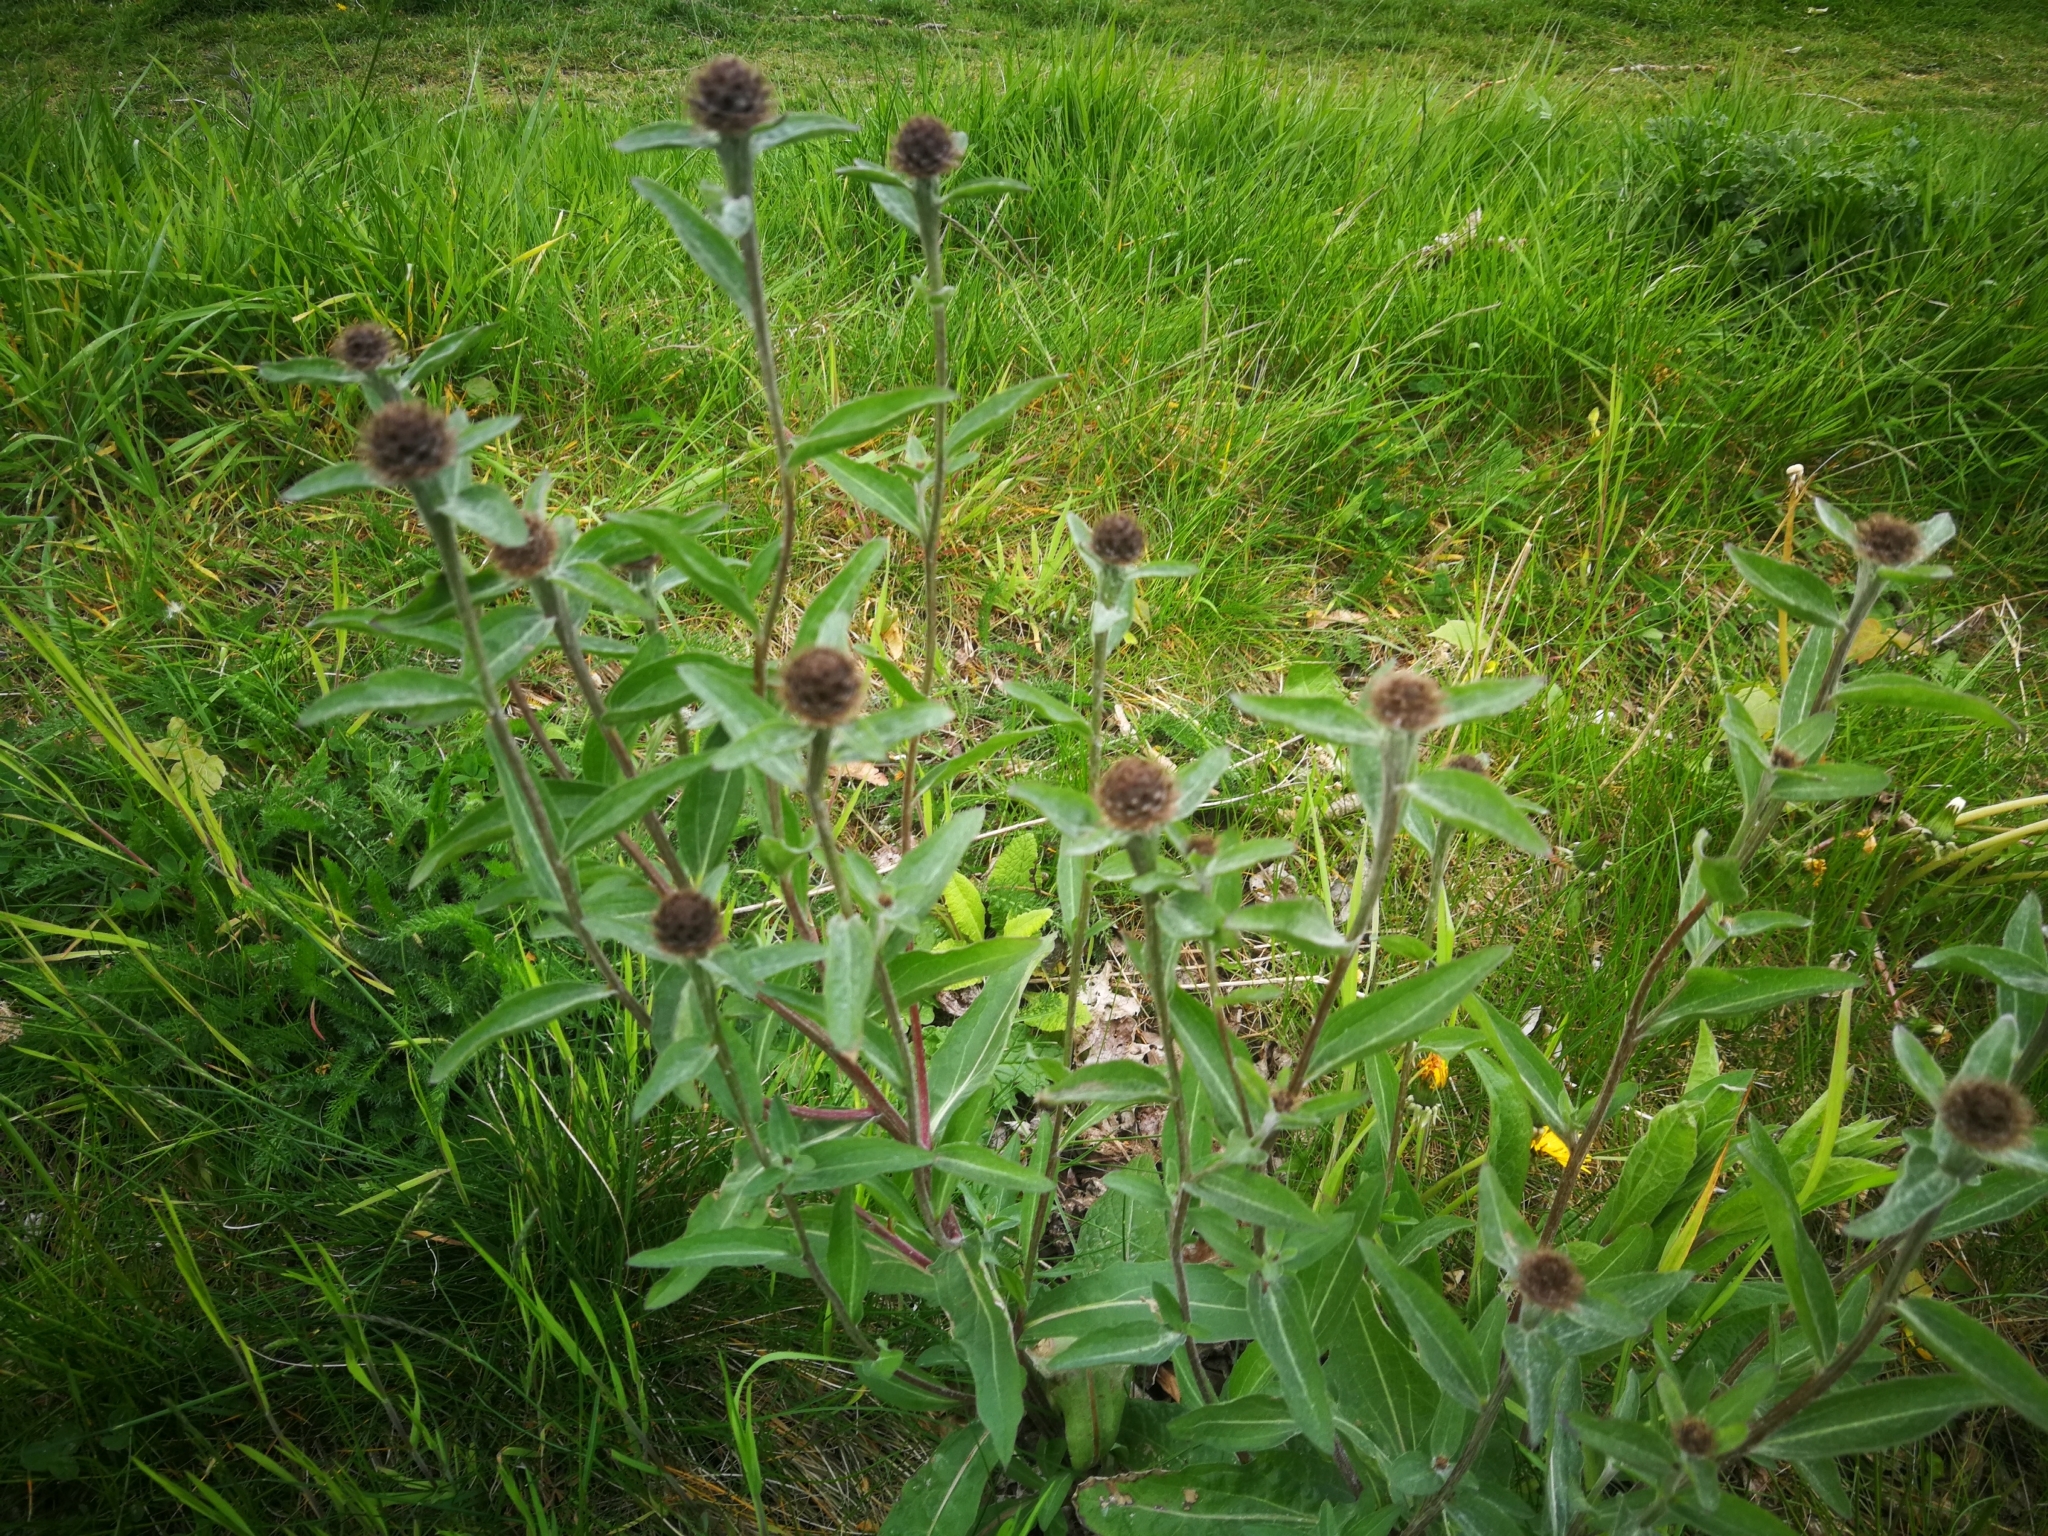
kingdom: Plantae
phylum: Tracheophyta
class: Magnoliopsida
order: Asterales
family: Asteraceae
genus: Centaurea
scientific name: Centaurea nigra
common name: Lesser knapweed
